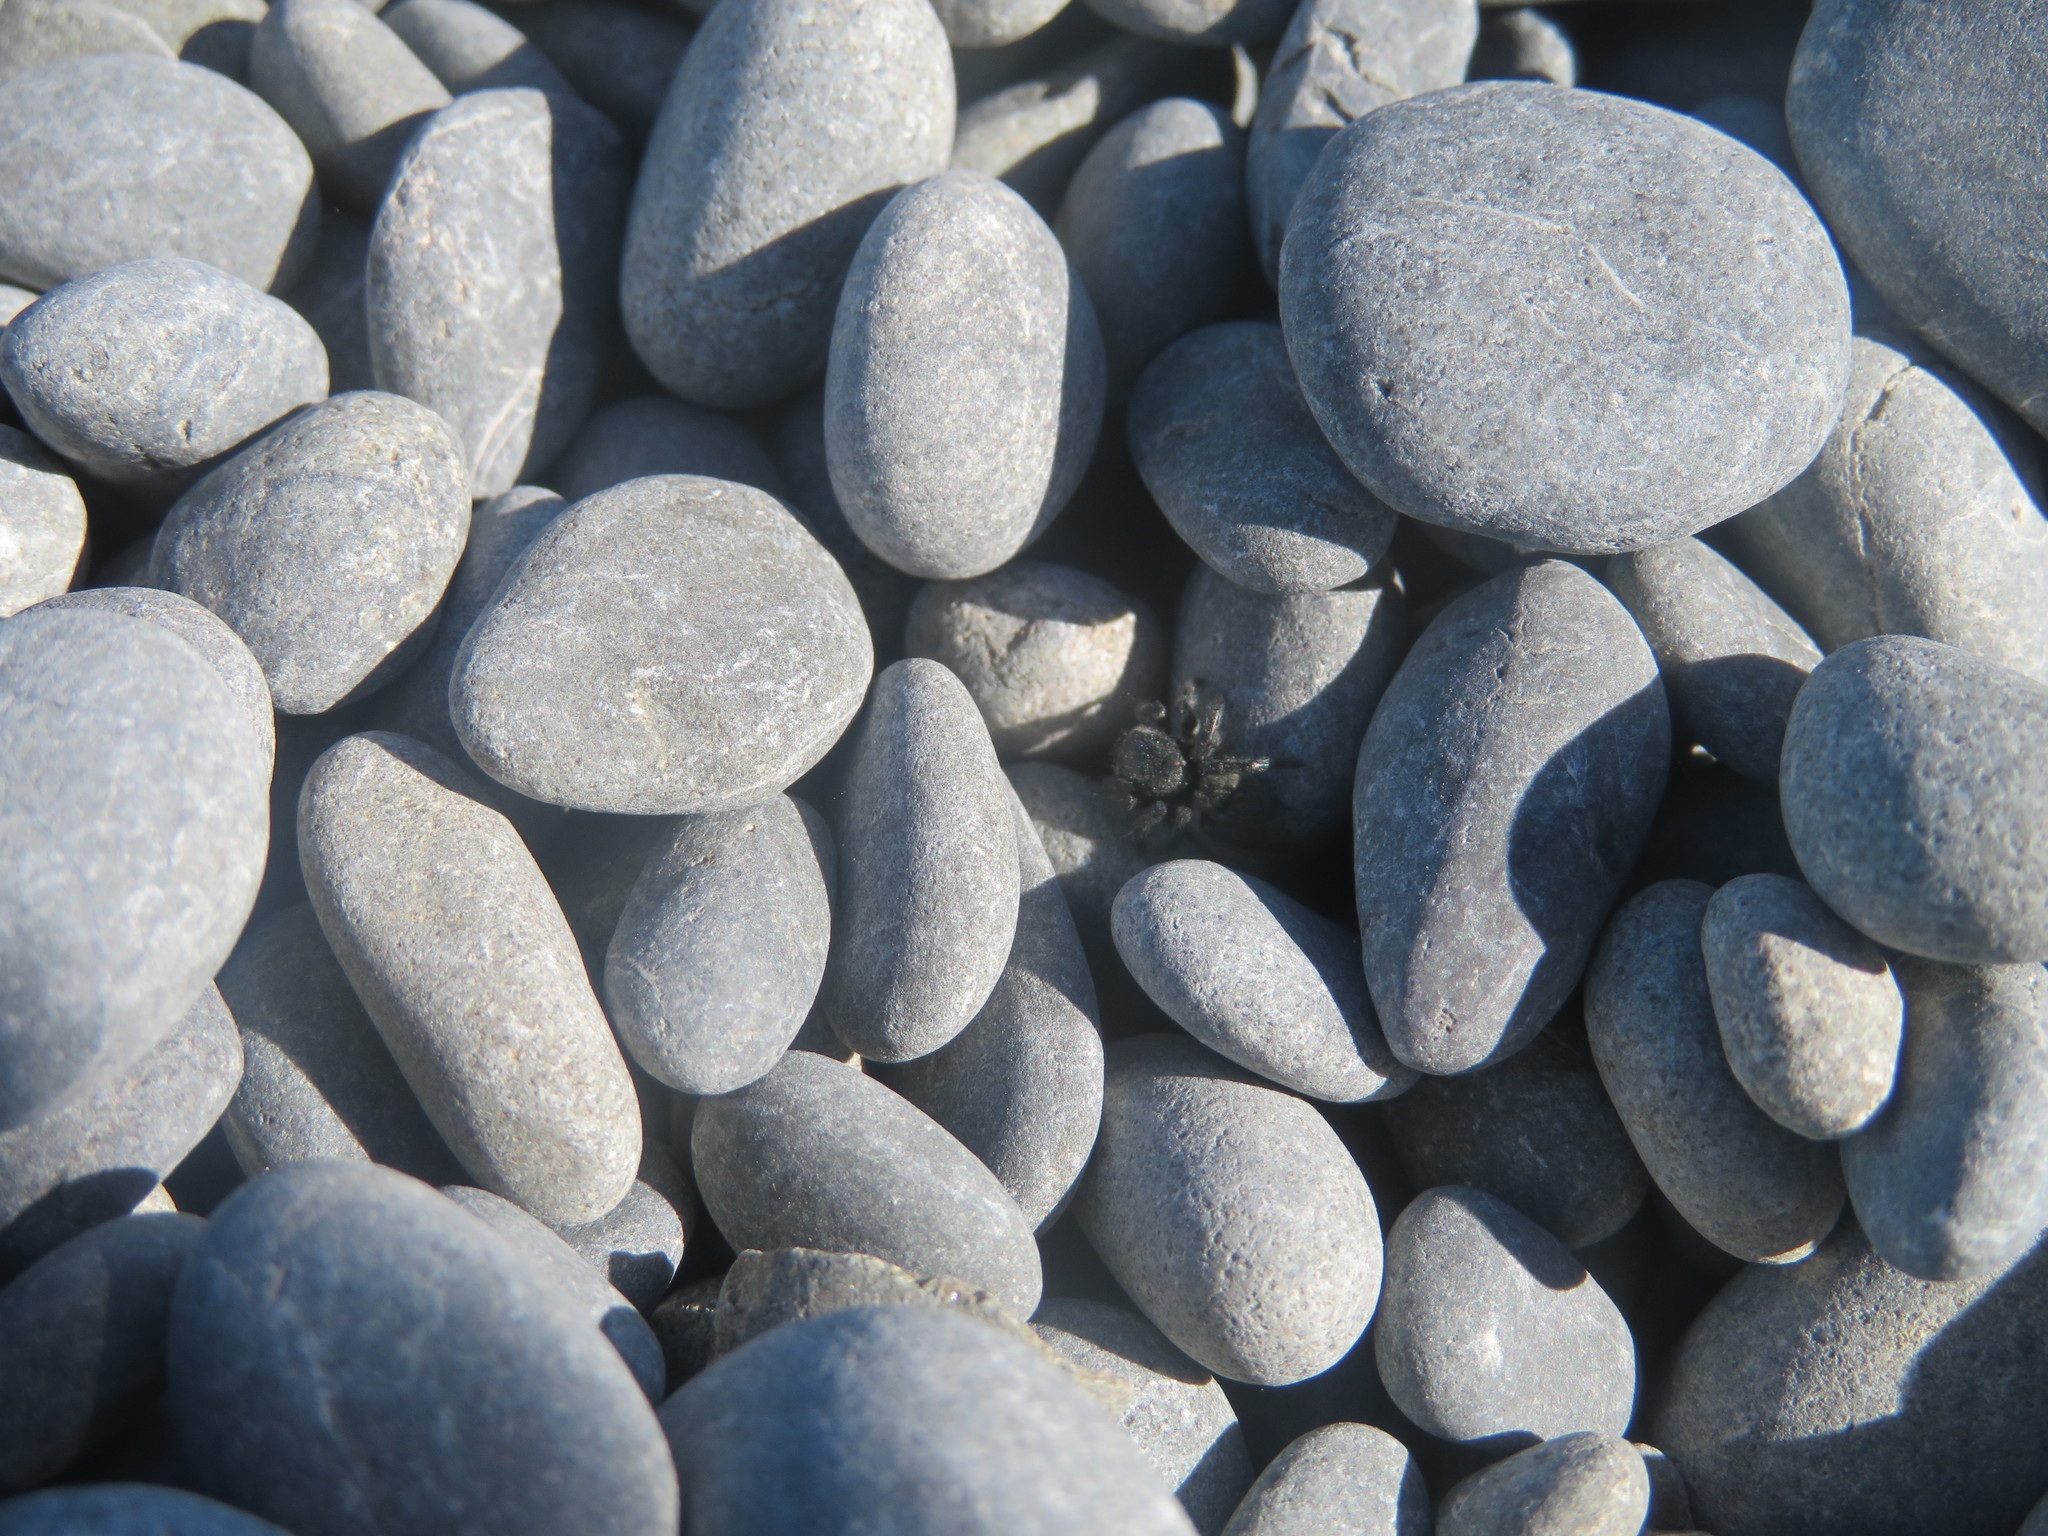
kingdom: Animalia
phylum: Arthropoda
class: Arachnida
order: Araneae
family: Salticidae
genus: Marpissa
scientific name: Marpissa marina
